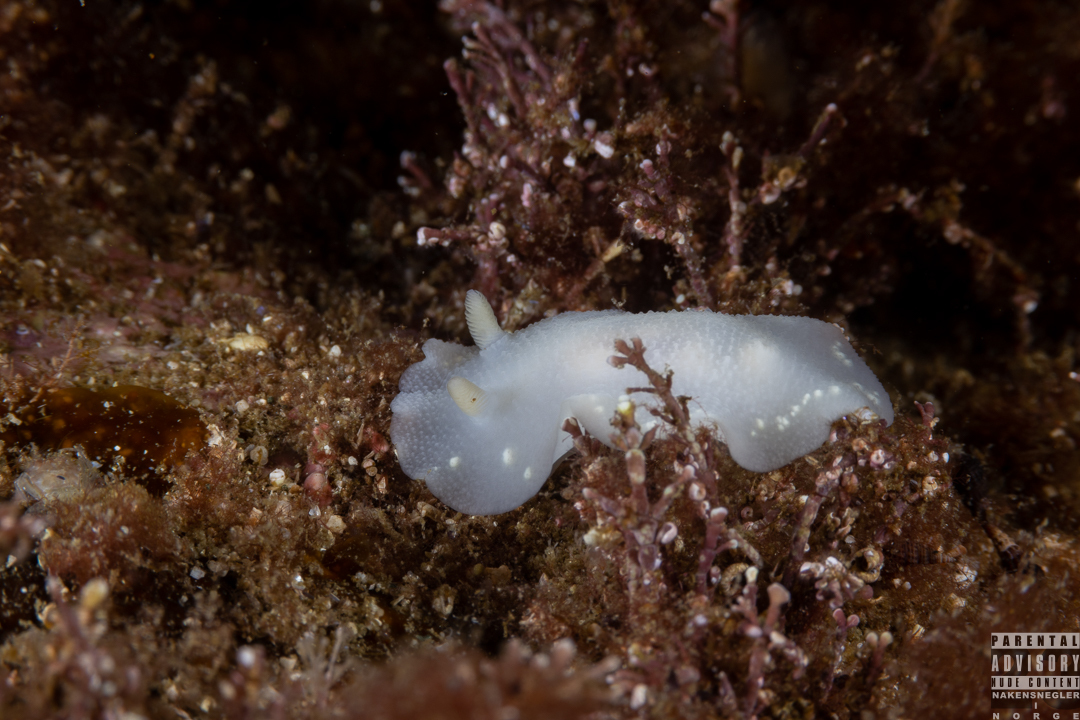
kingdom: Animalia
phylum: Mollusca
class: Gastropoda
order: Nudibranchia
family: Cadlinidae
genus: Cadlina
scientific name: Cadlina laevis
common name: White atlantic cadlina
